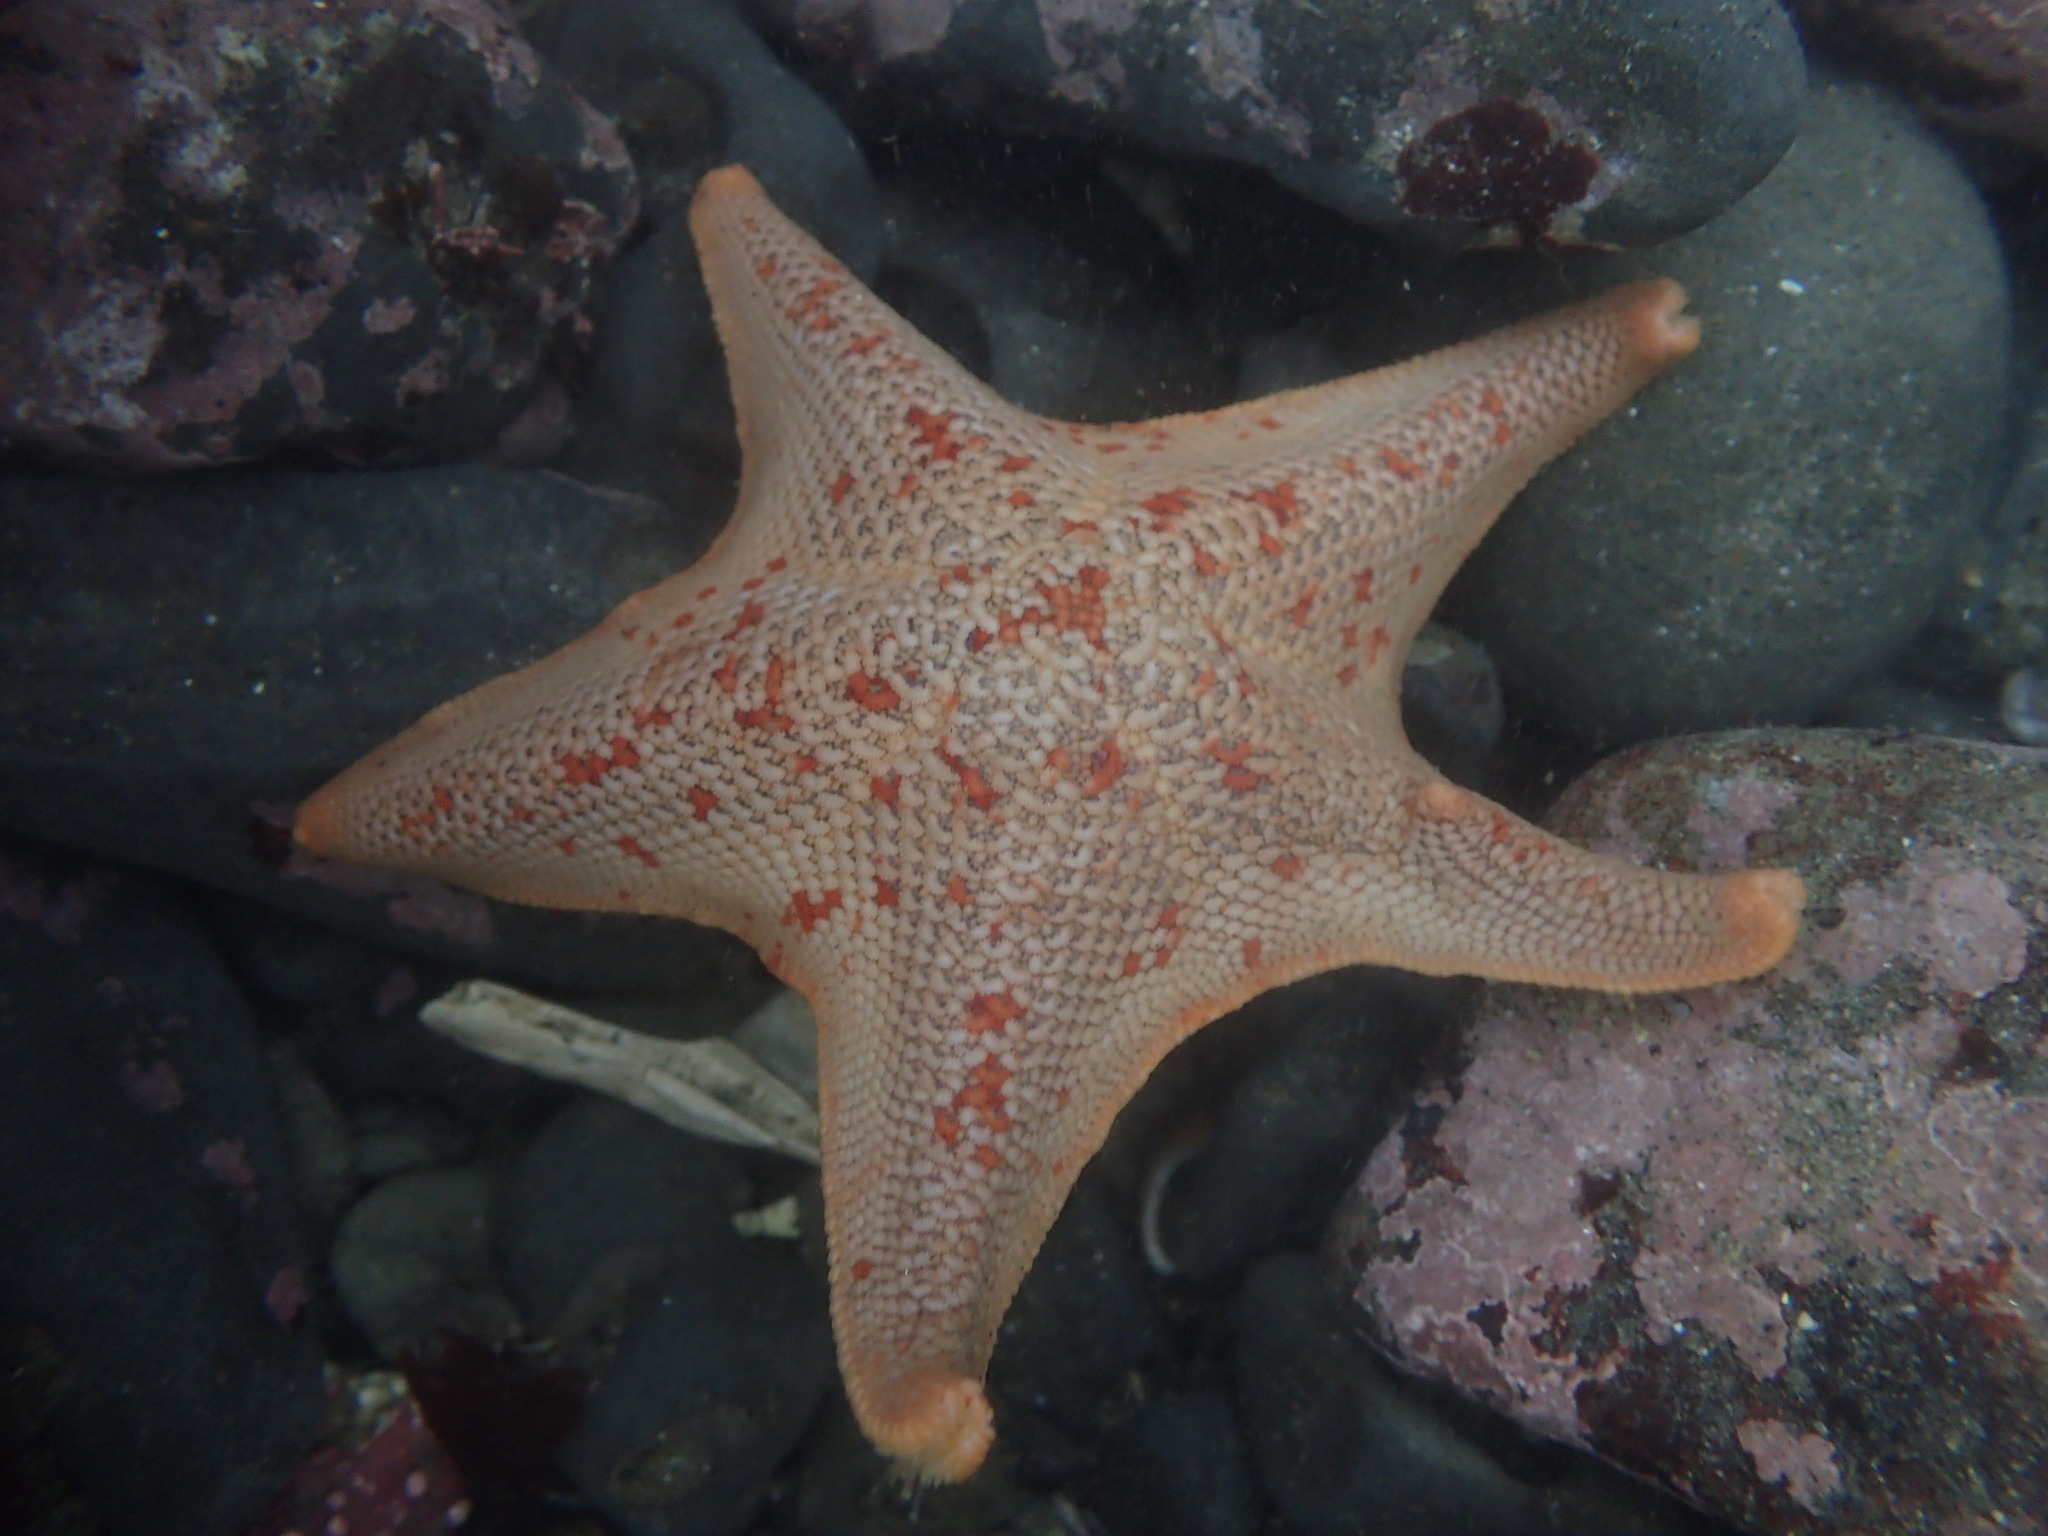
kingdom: Animalia
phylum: Echinodermata
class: Asteroidea
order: Valvatida
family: Asterinidae
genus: Patiria
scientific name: Patiria miniata
